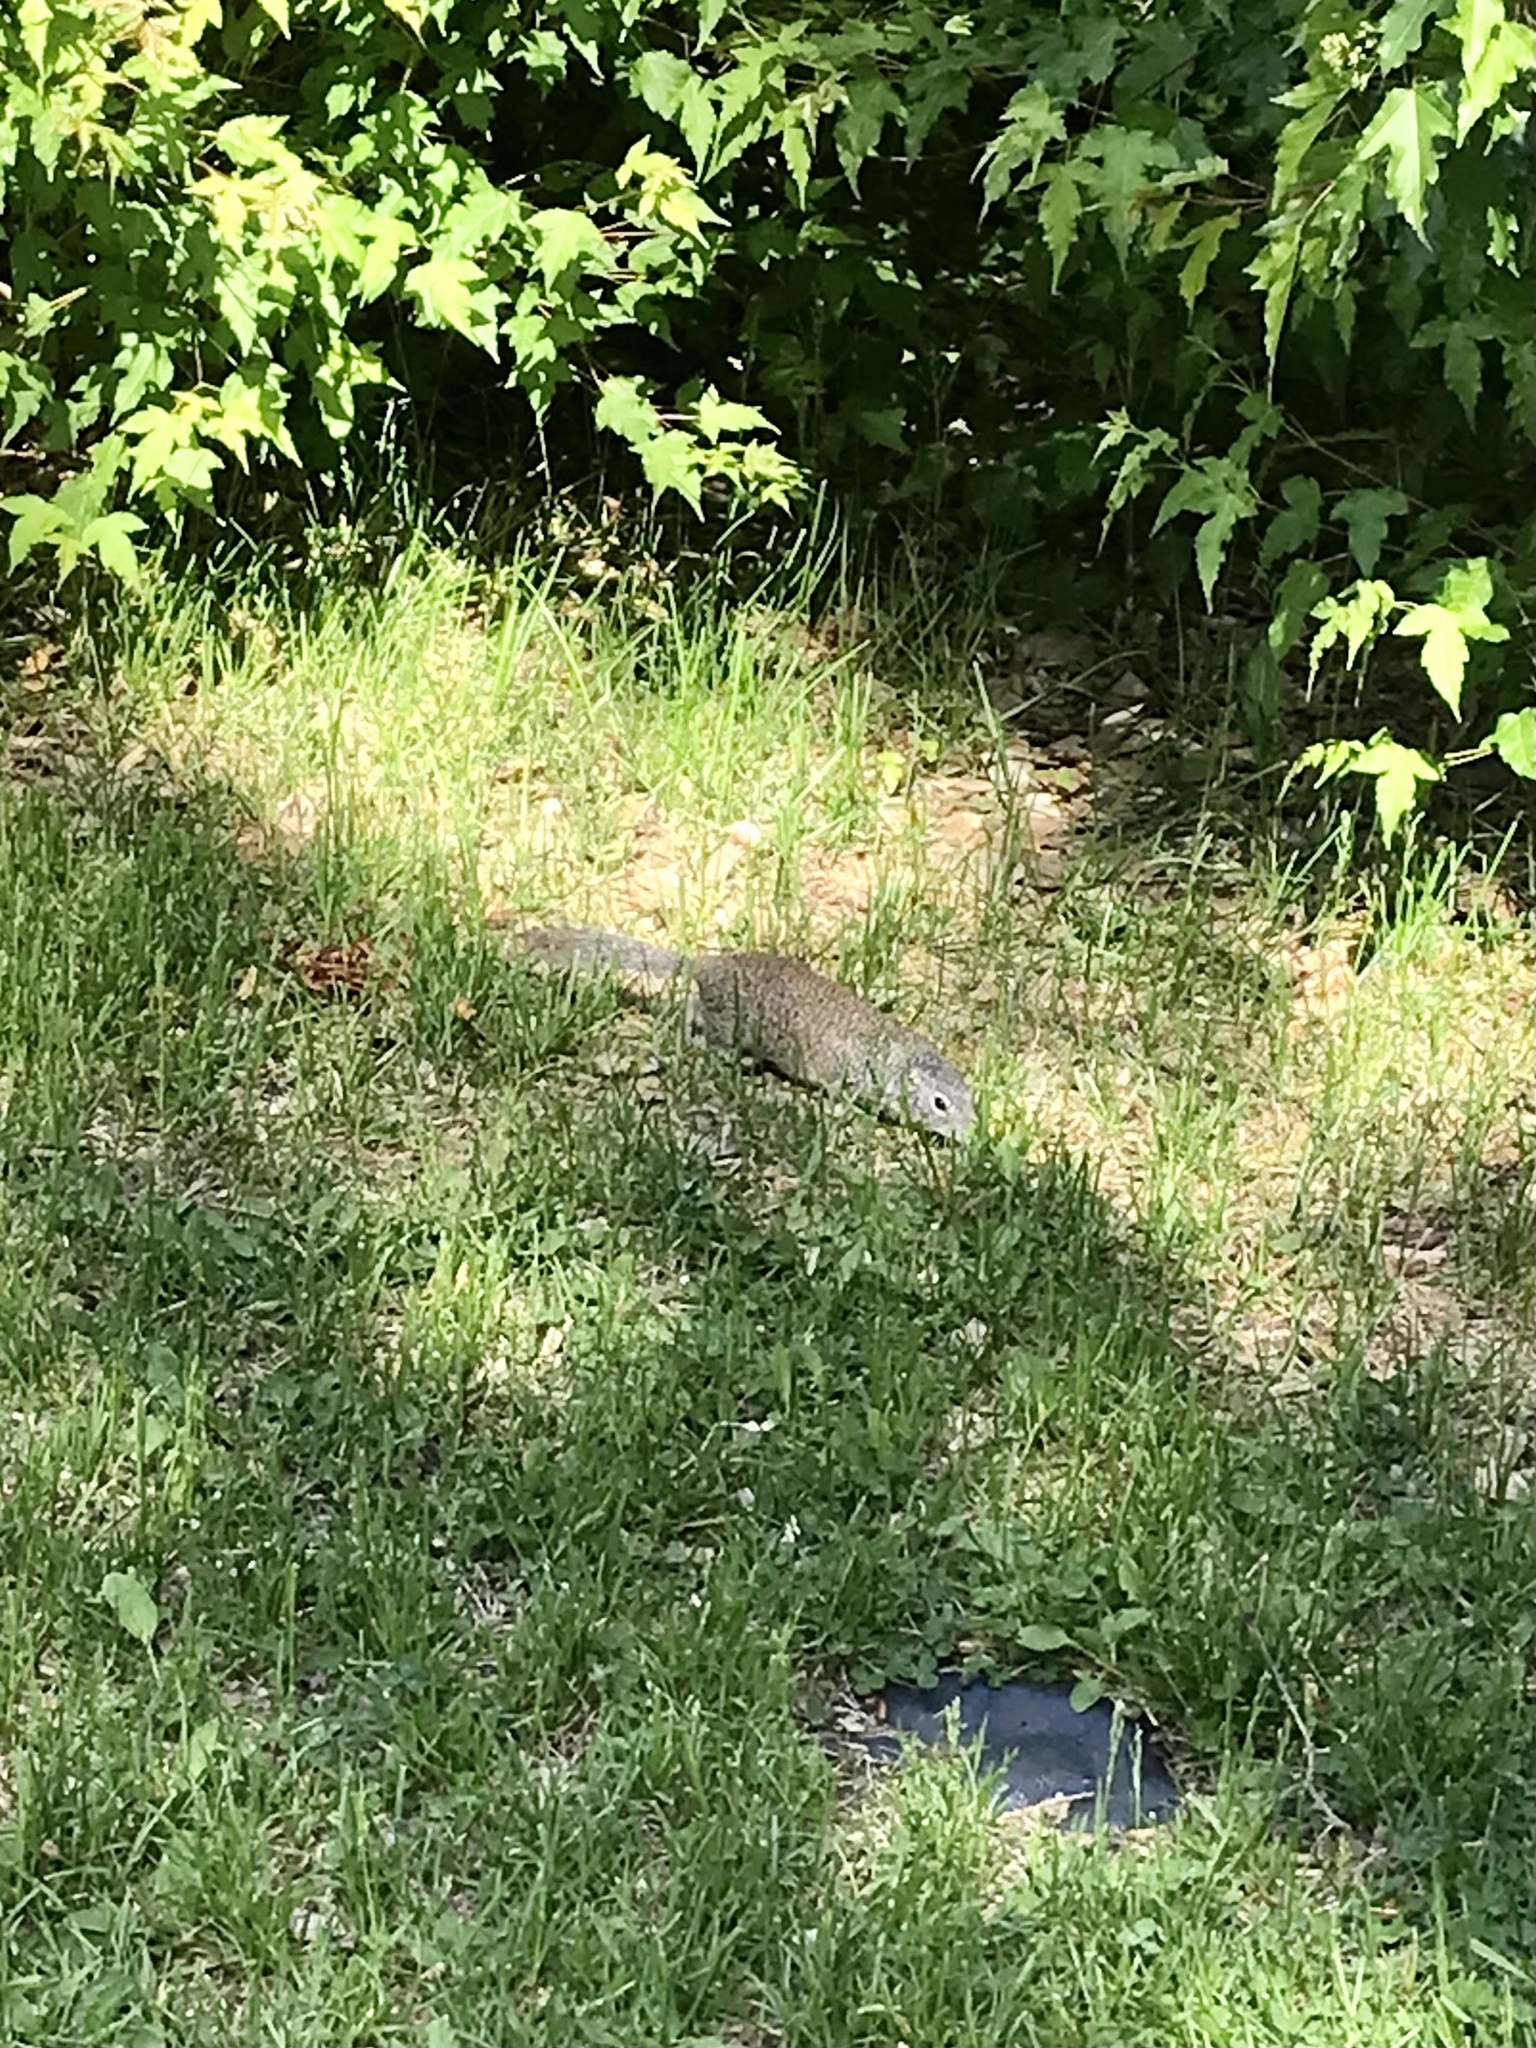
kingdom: Animalia
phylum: Chordata
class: Mammalia
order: Rodentia
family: Sciuridae
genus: Poliocitellus
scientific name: Poliocitellus franklinii
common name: Franklin's ground squirrel
